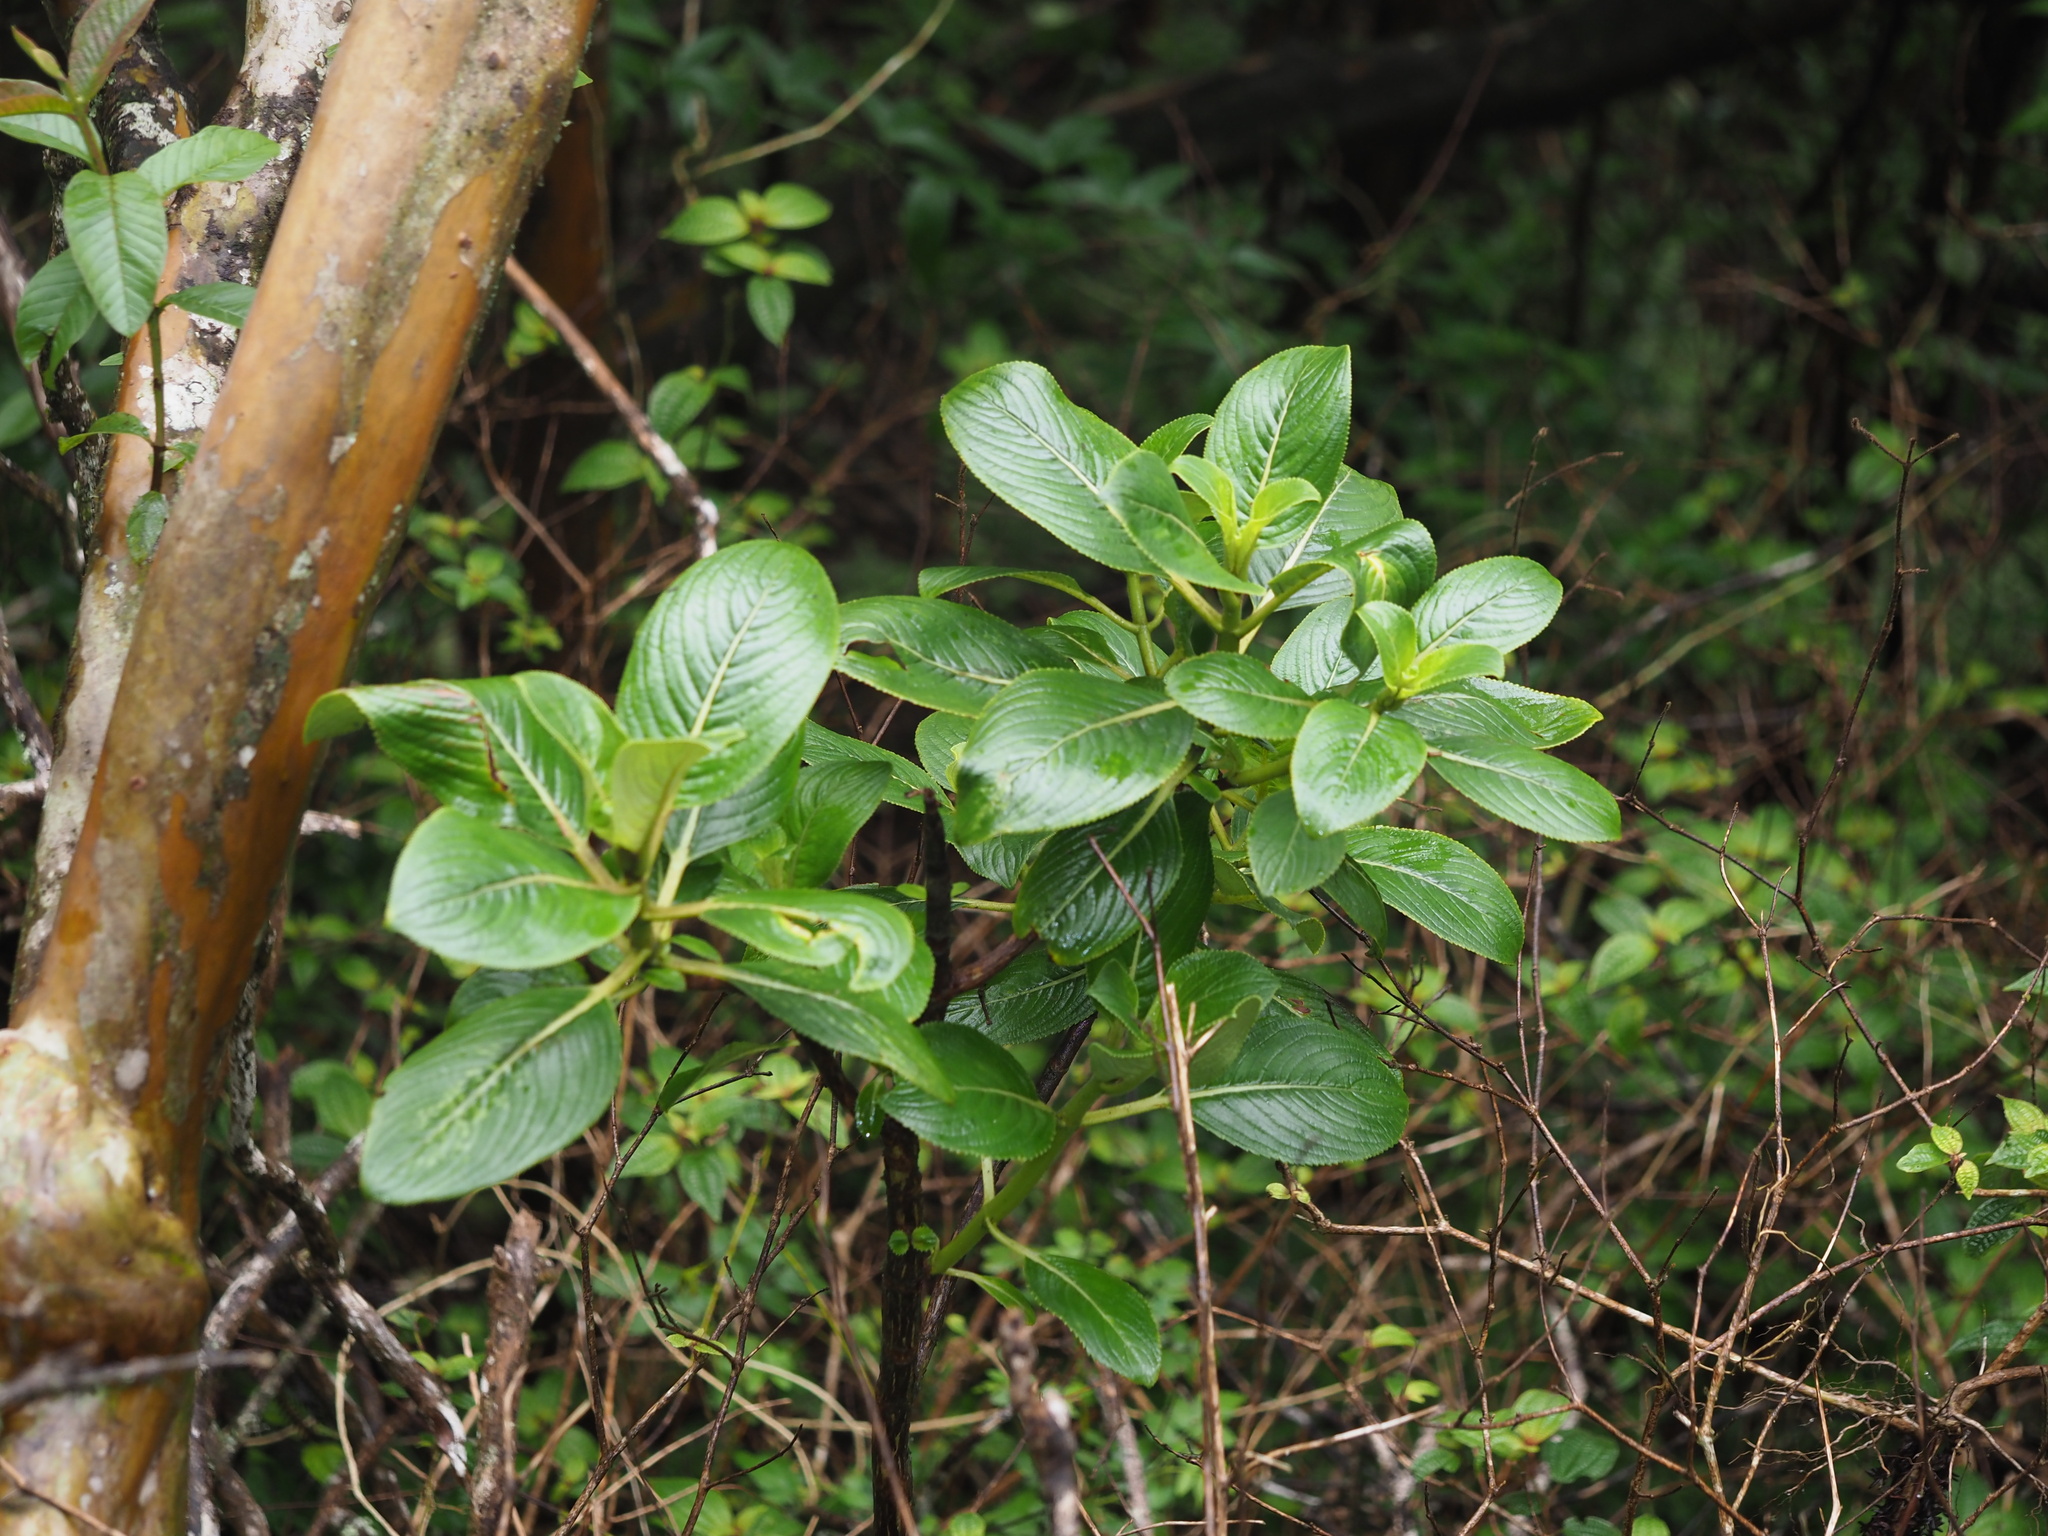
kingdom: Plantae
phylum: Tracheophyta
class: Magnoliopsida
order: Cornales
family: Hydrangeaceae
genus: Hydrangea
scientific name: Hydrangea arguta
